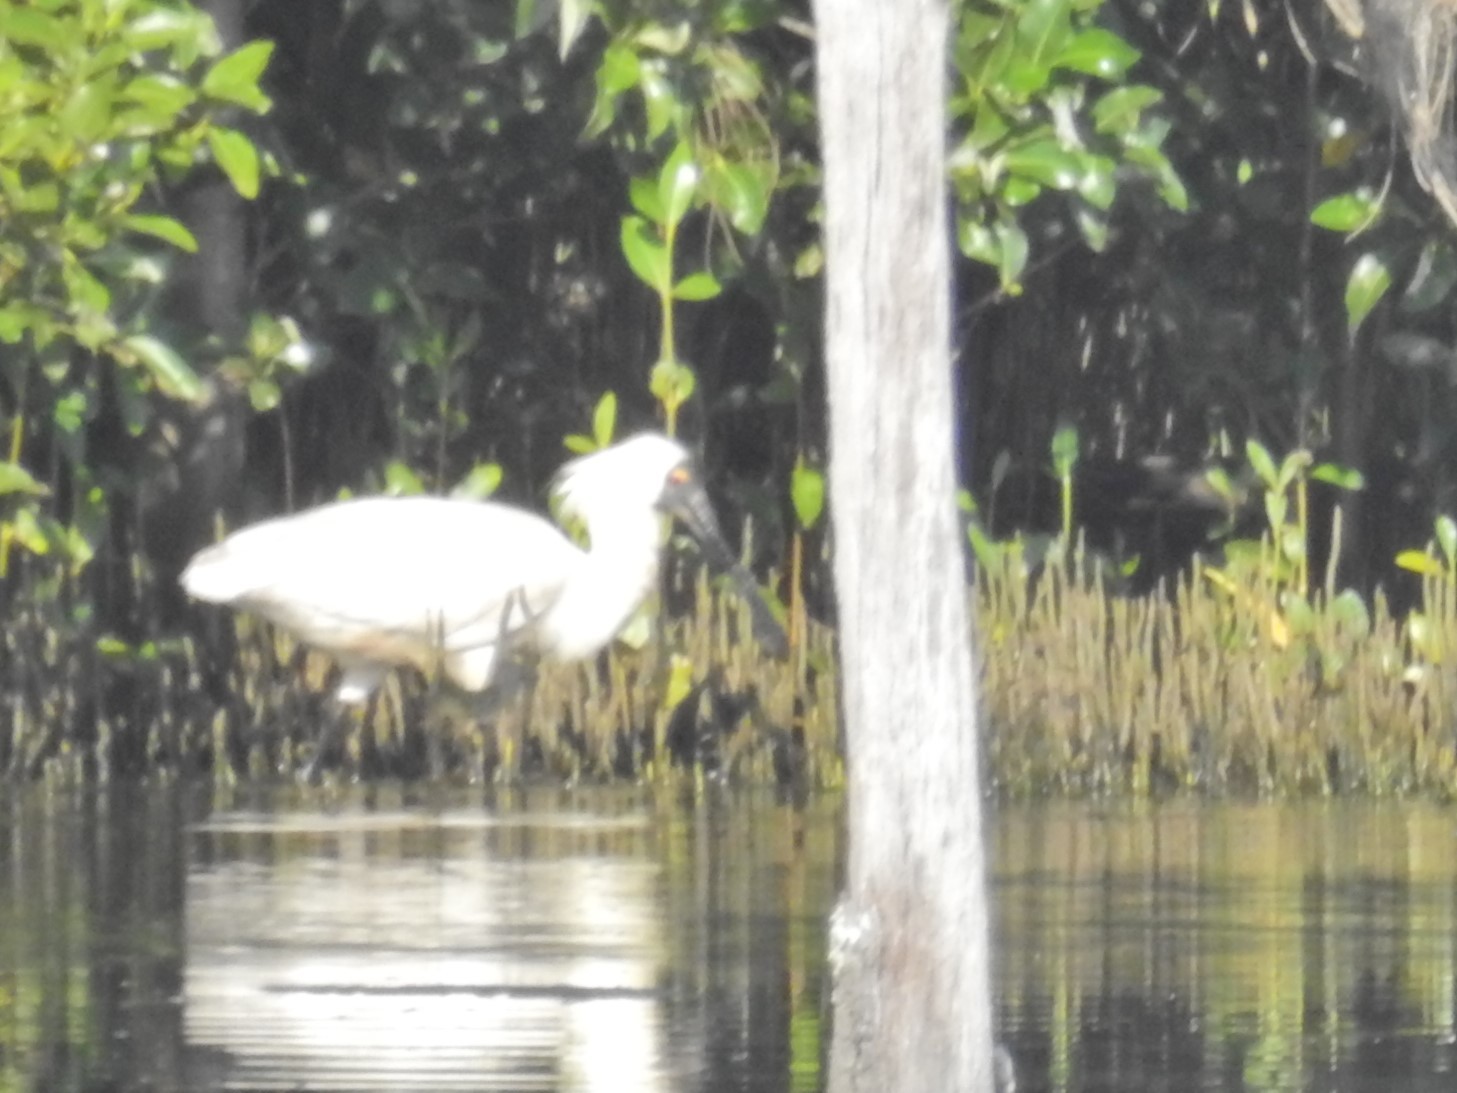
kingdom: Animalia
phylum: Chordata
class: Aves
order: Pelecaniformes
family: Threskiornithidae
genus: Platalea
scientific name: Platalea regia
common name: Royal spoonbill
